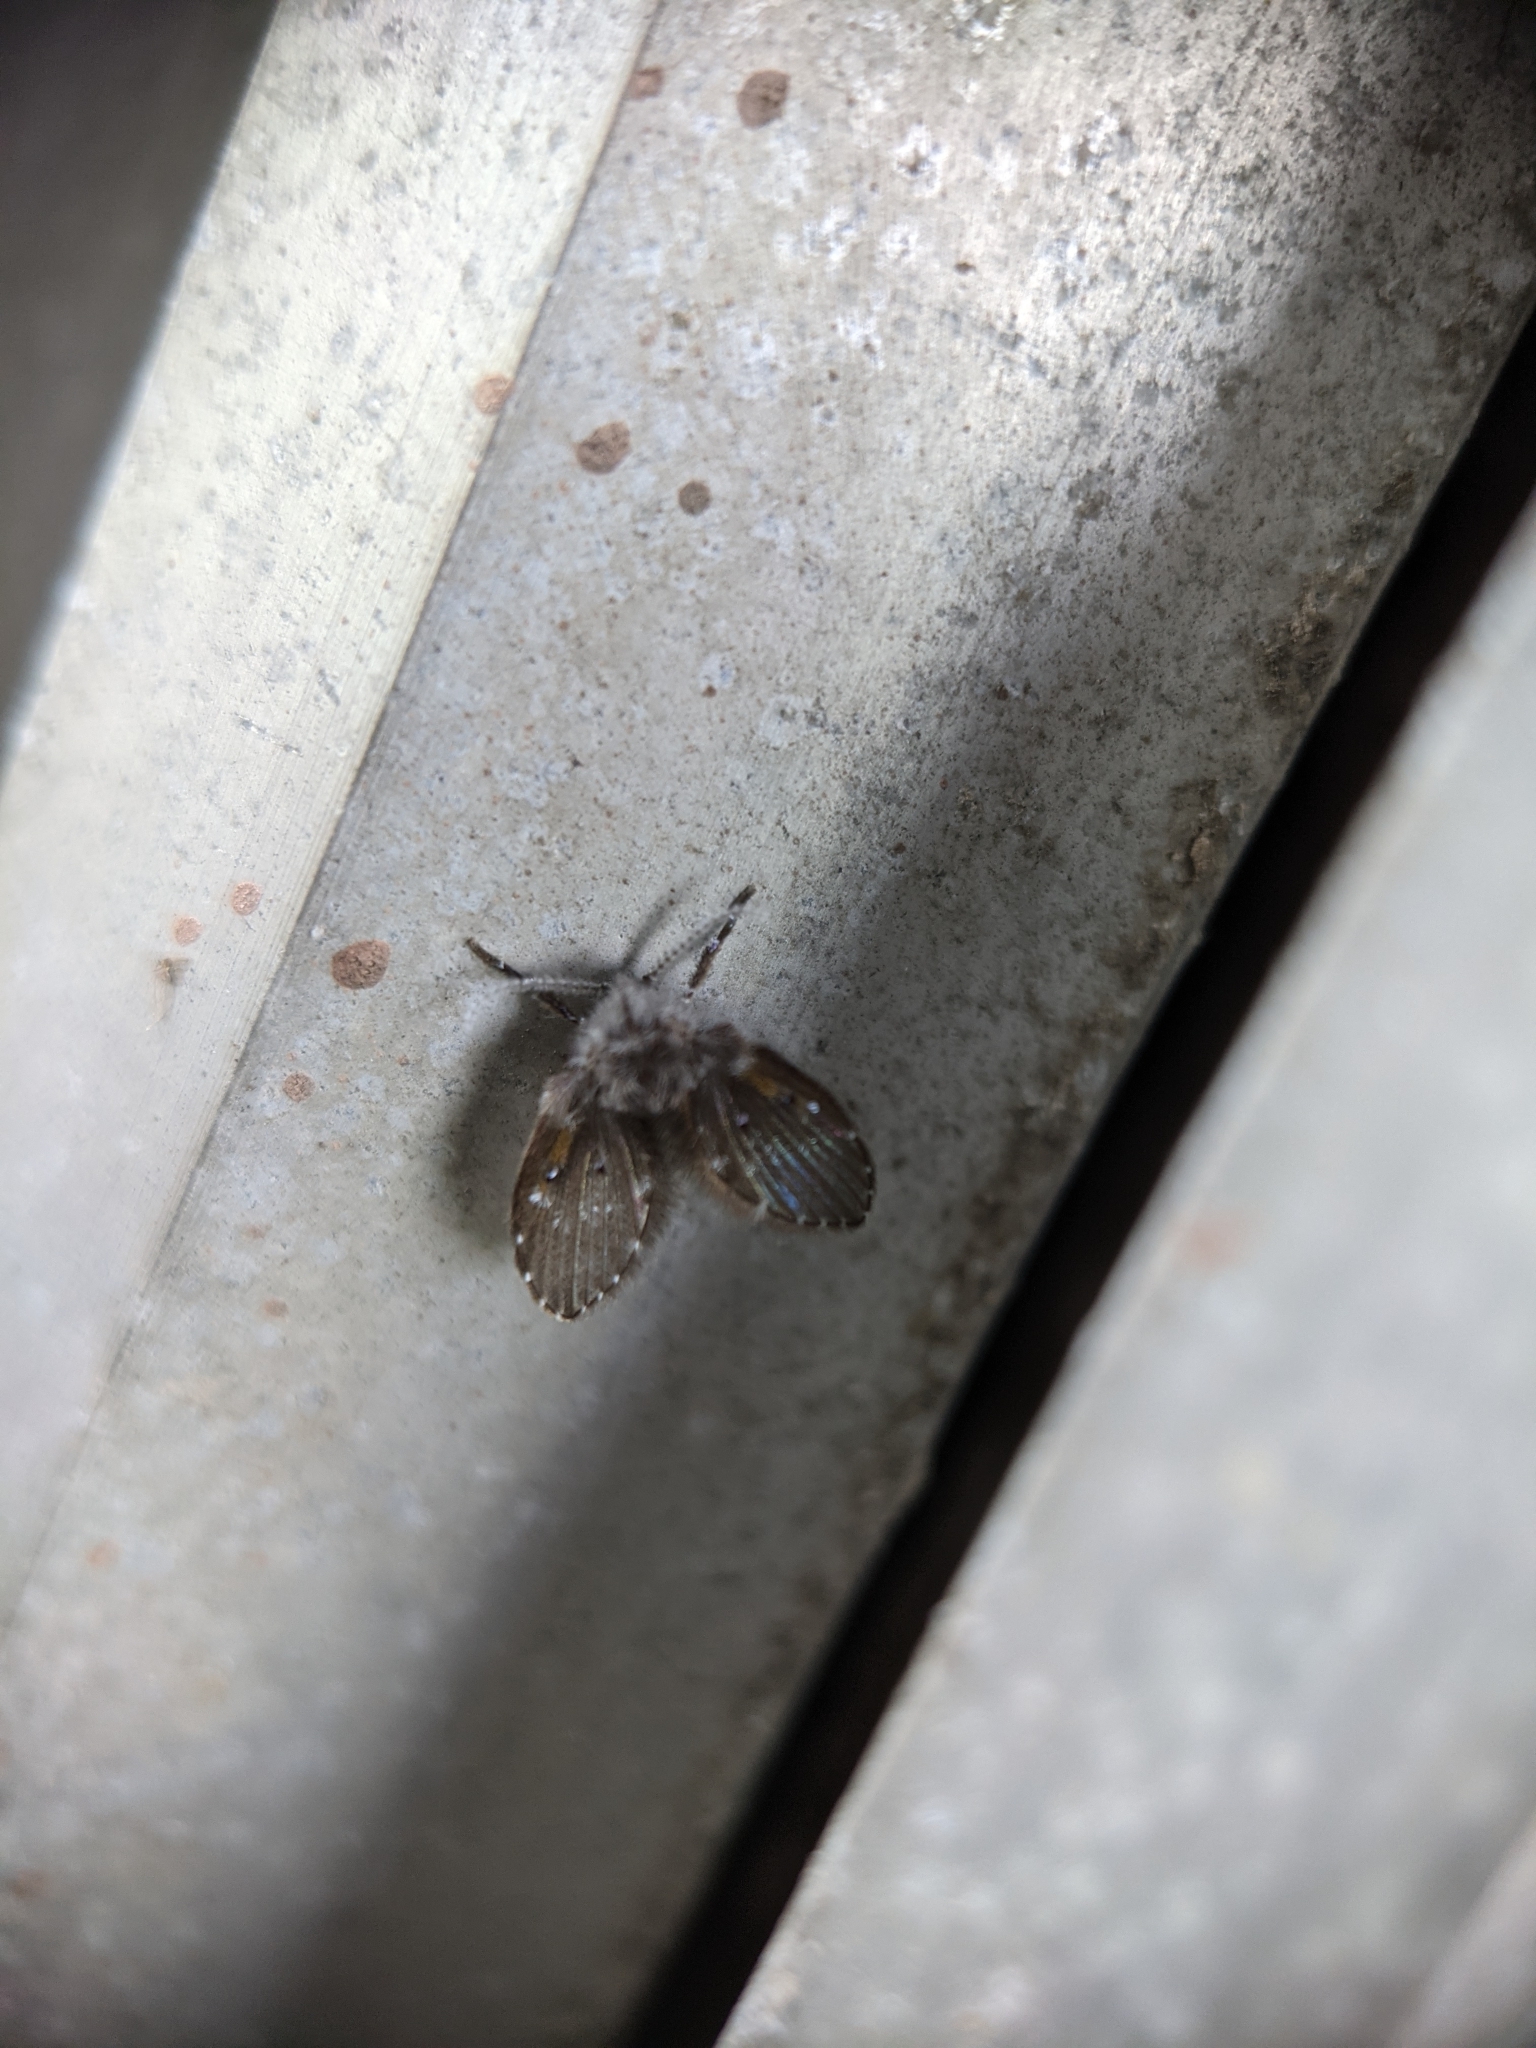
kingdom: Animalia
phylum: Arthropoda
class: Insecta
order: Diptera
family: Psychodidae
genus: Clogmia
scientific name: Clogmia albipunctatus
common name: White-spotted moth fly
